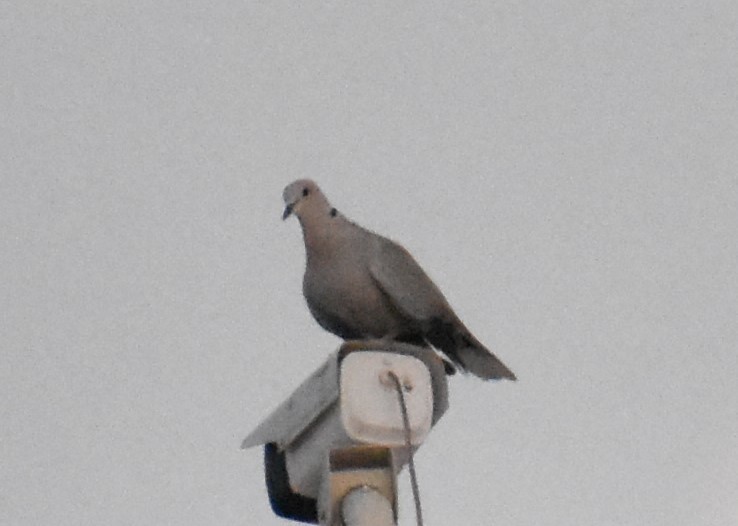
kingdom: Animalia
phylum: Chordata
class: Aves
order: Columbiformes
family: Columbidae
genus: Streptopelia
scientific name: Streptopelia decaocto
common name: Eurasian collared dove
